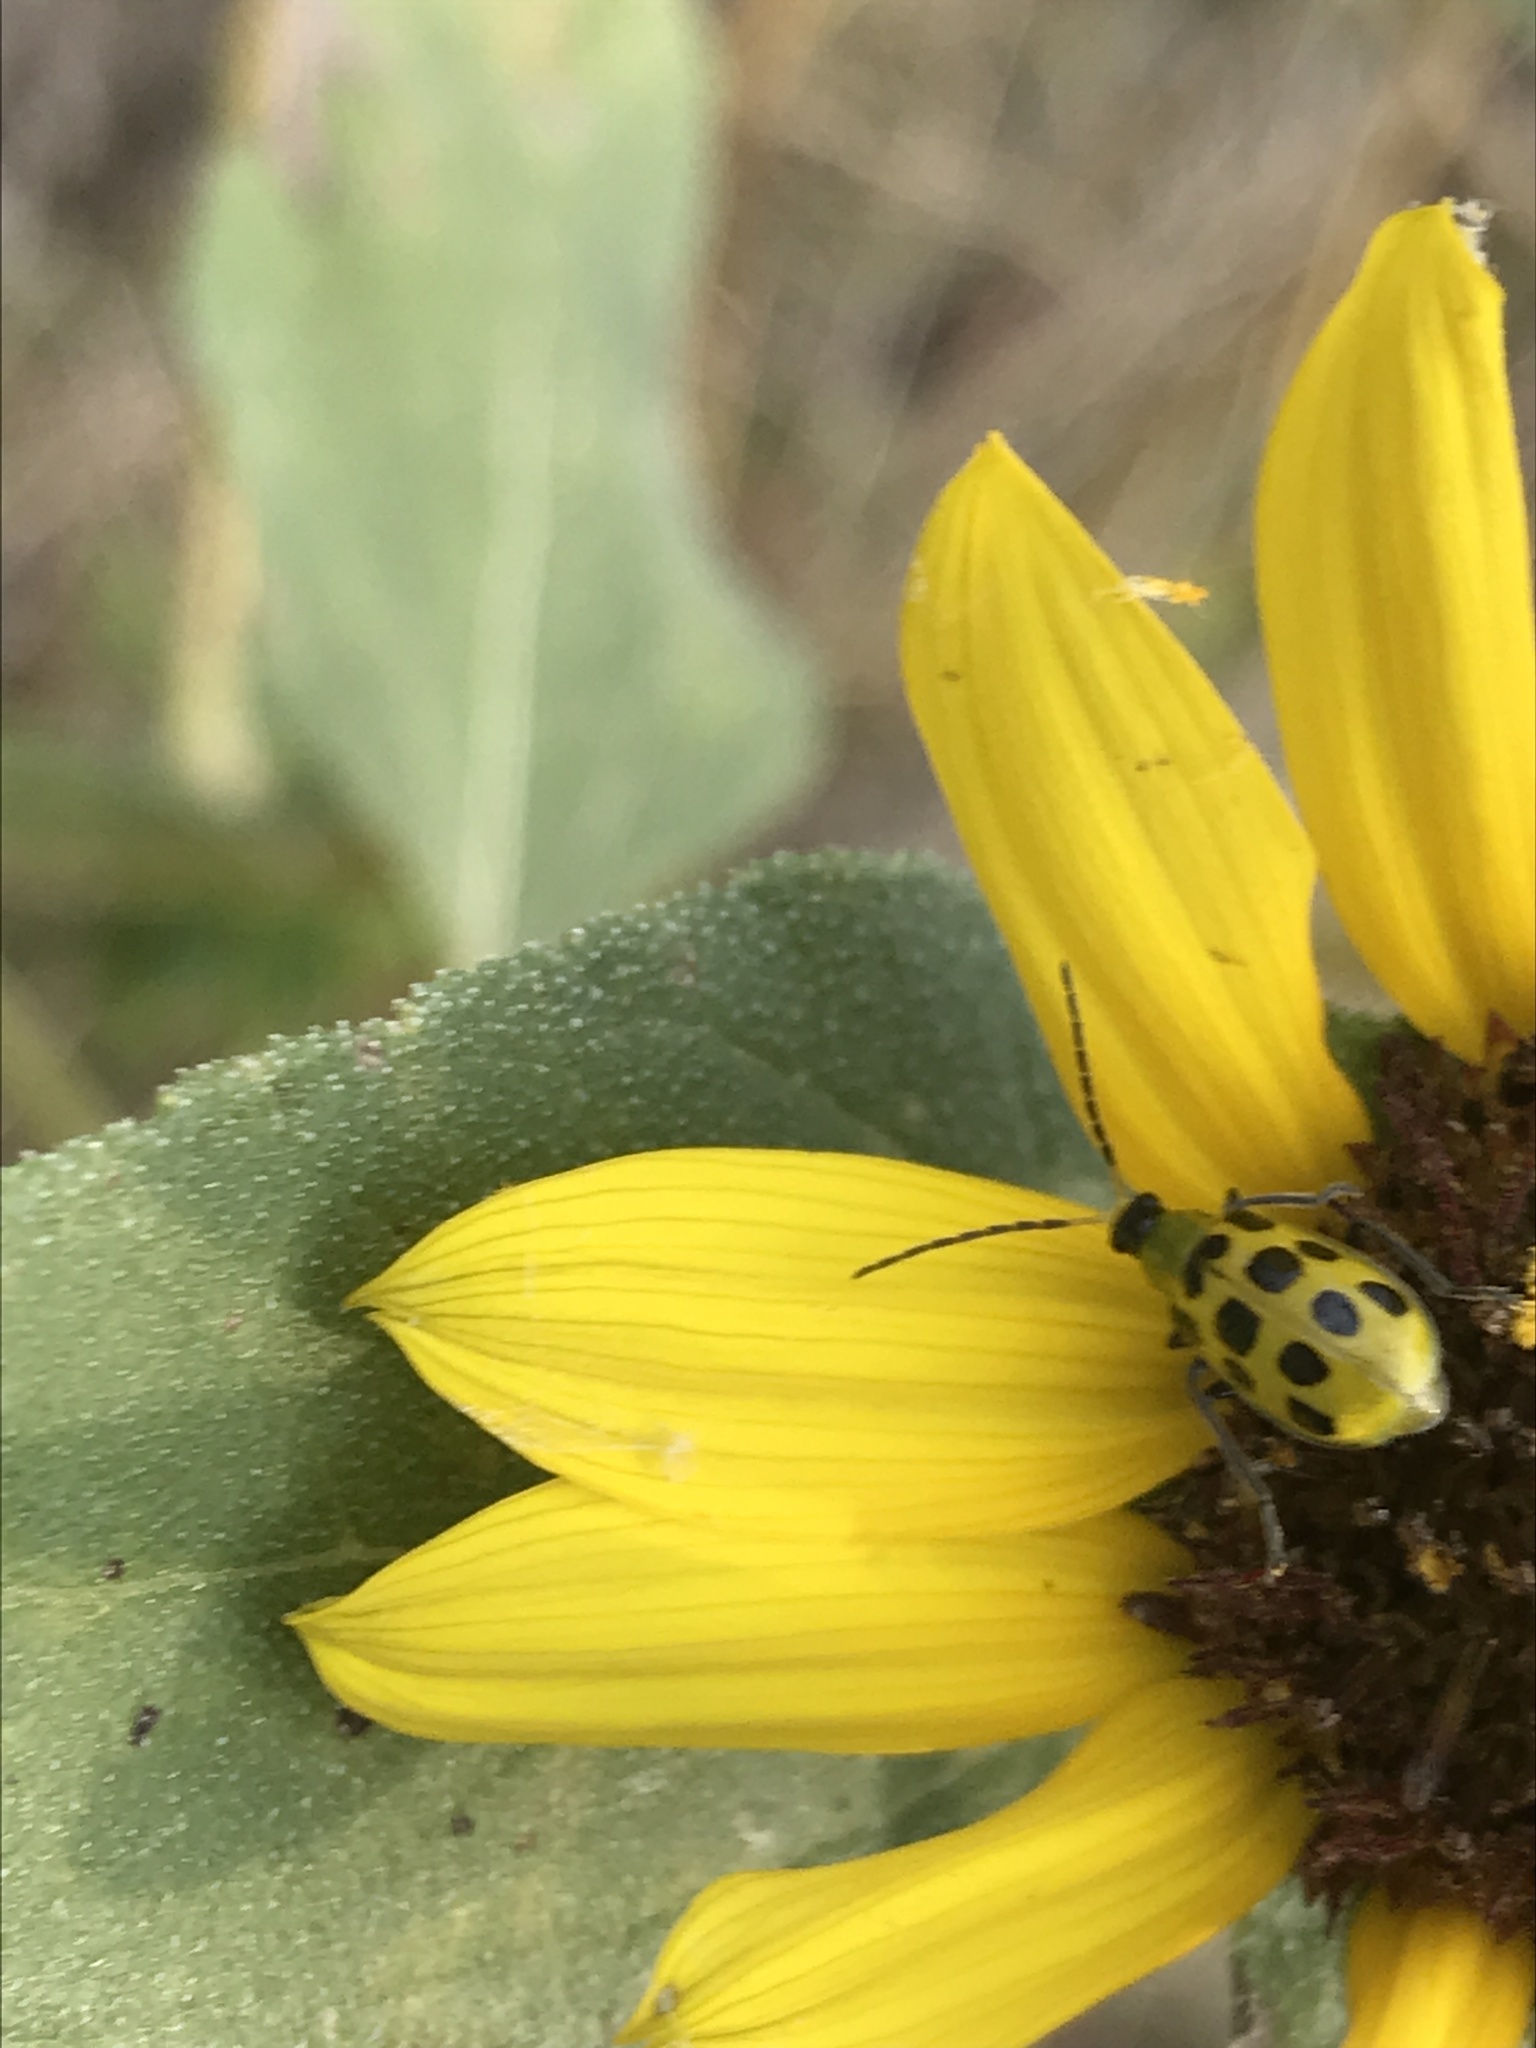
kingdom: Animalia
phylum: Arthropoda
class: Insecta
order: Coleoptera
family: Chrysomelidae
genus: Diabrotica
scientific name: Diabrotica undecimpunctata
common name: Spotted cucumber beetle
